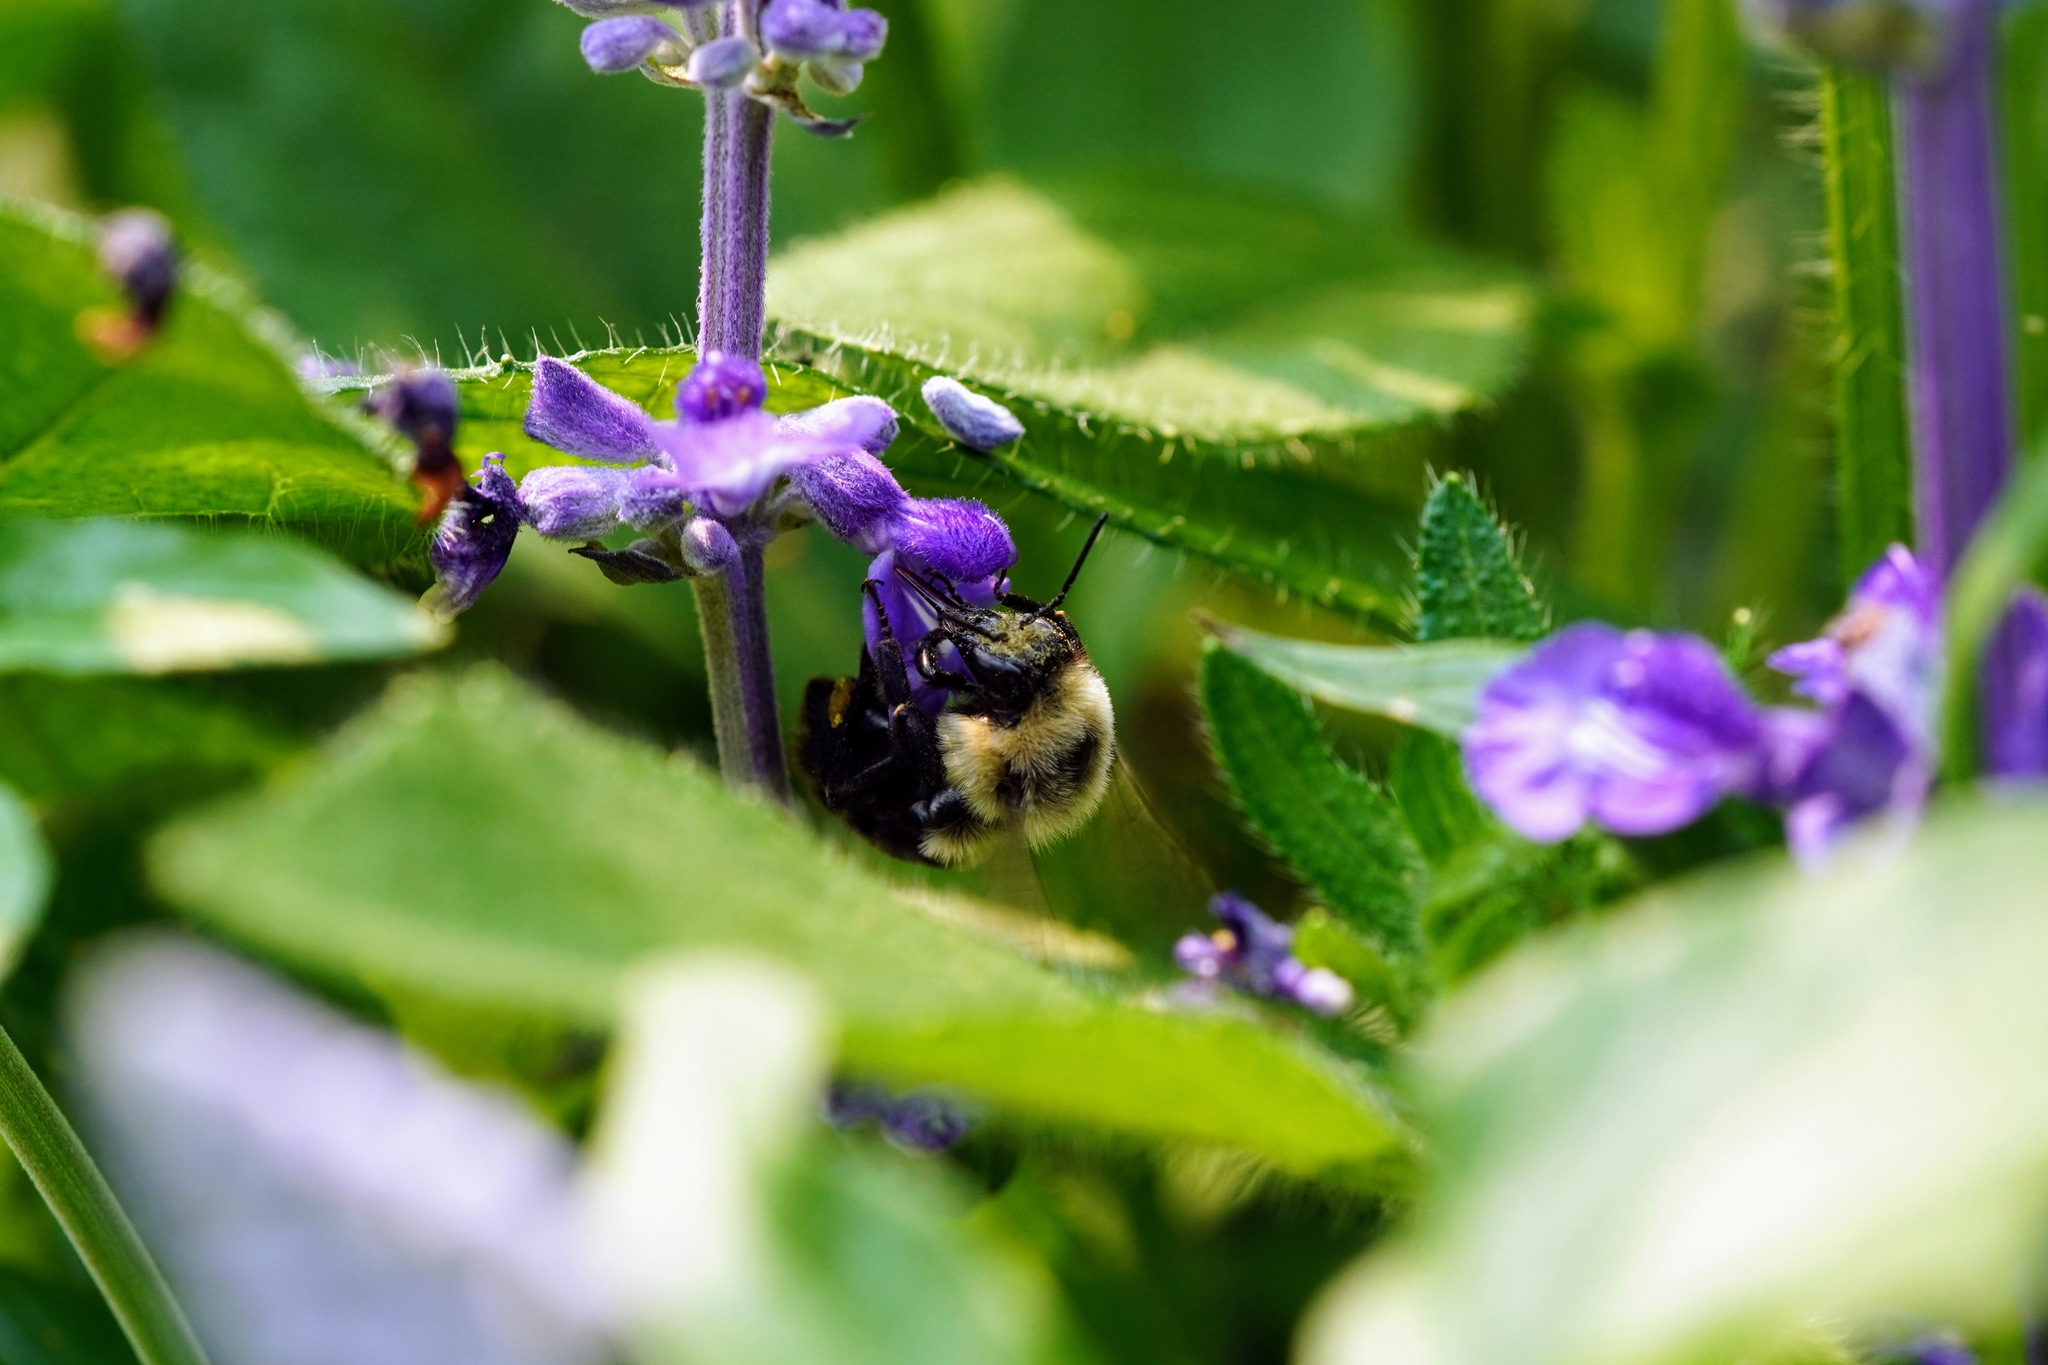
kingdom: Animalia
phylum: Arthropoda
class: Insecta
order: Hymenoptera
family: Apidae
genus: Bombus
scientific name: Bombus impatiens
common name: Common eastern bumble bee
